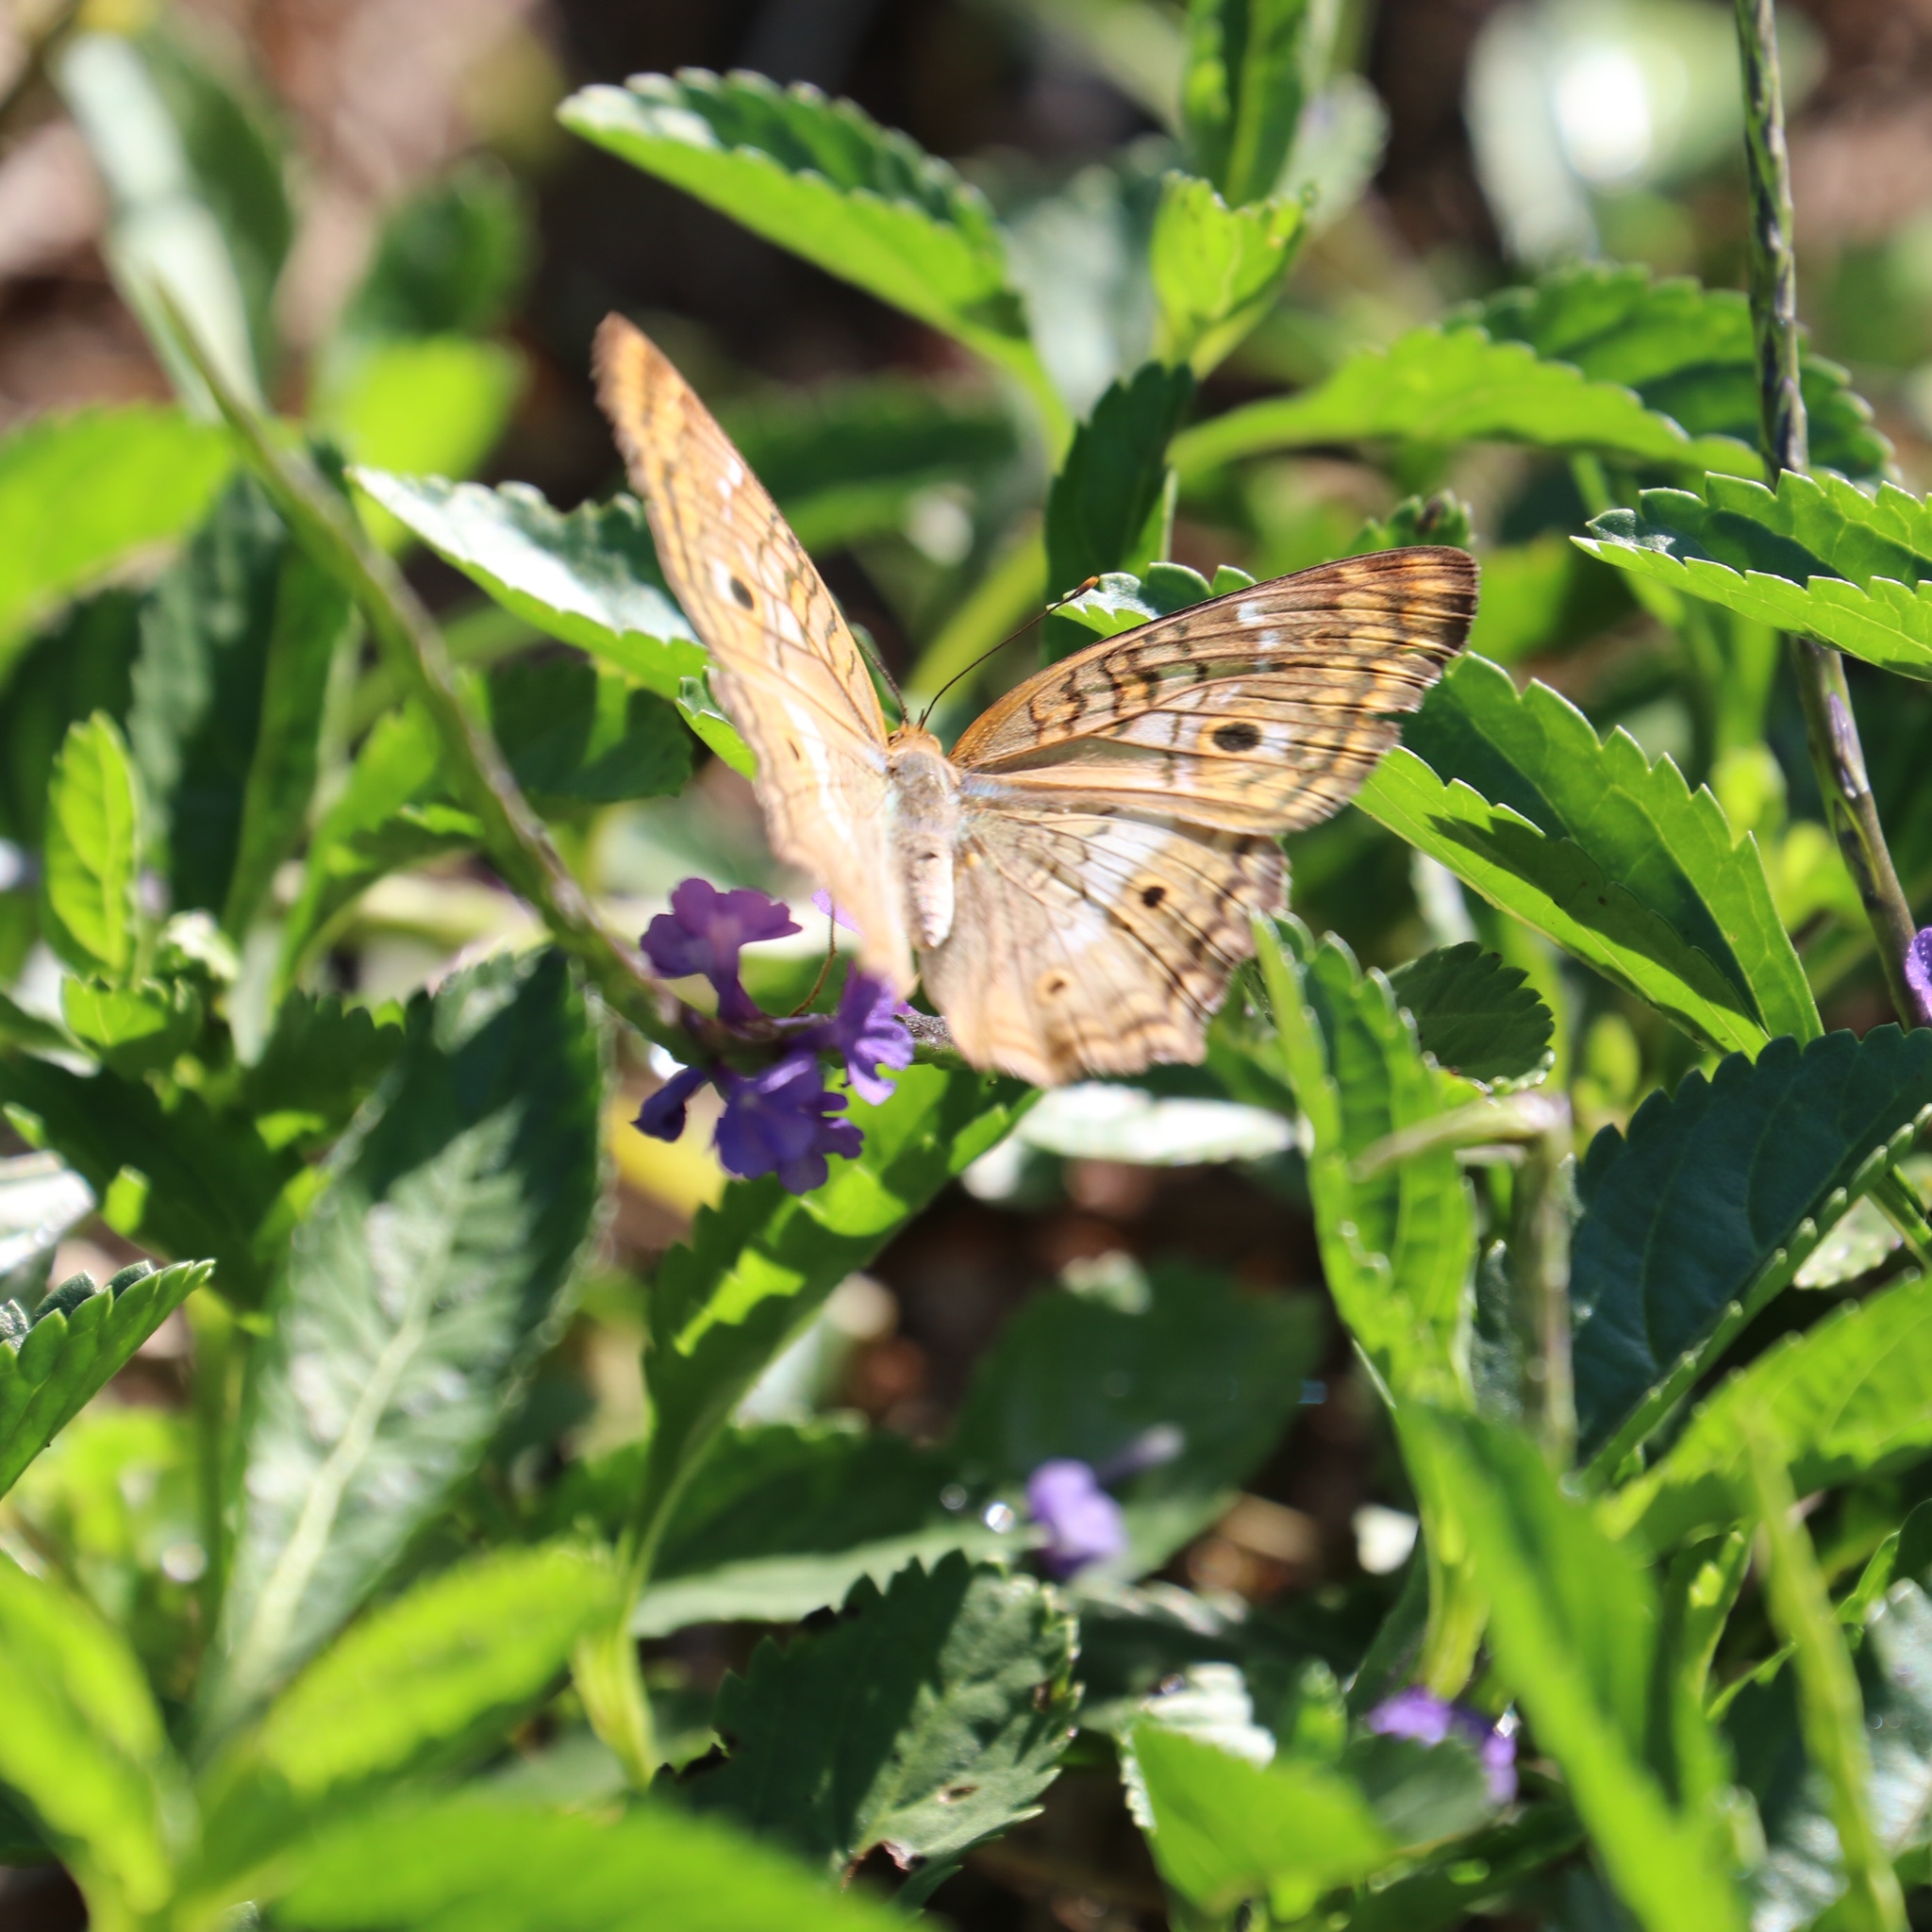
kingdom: Animalia
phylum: Arthropoda
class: Insecta
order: Lepidoptera
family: Nymphalidae
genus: Anartia
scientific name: Anartia jatrophae
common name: White peacock
